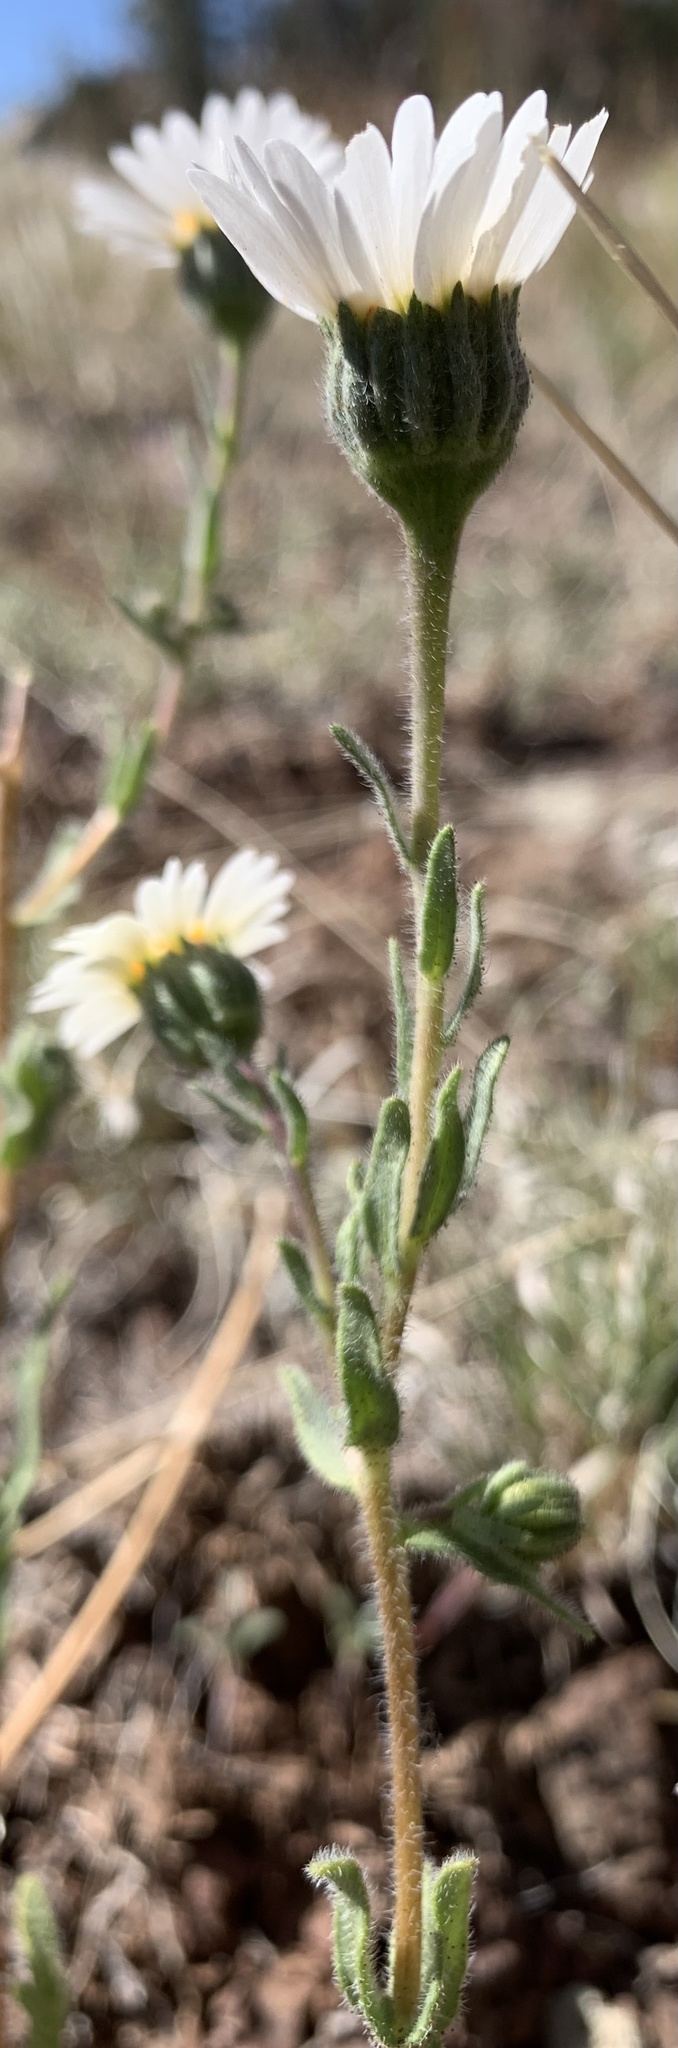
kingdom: Plantae
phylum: Tracheophyta
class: Magnoliopsida
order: Asterales
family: Asteraceae
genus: Layia
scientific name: Layia glandulosa
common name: White layia
